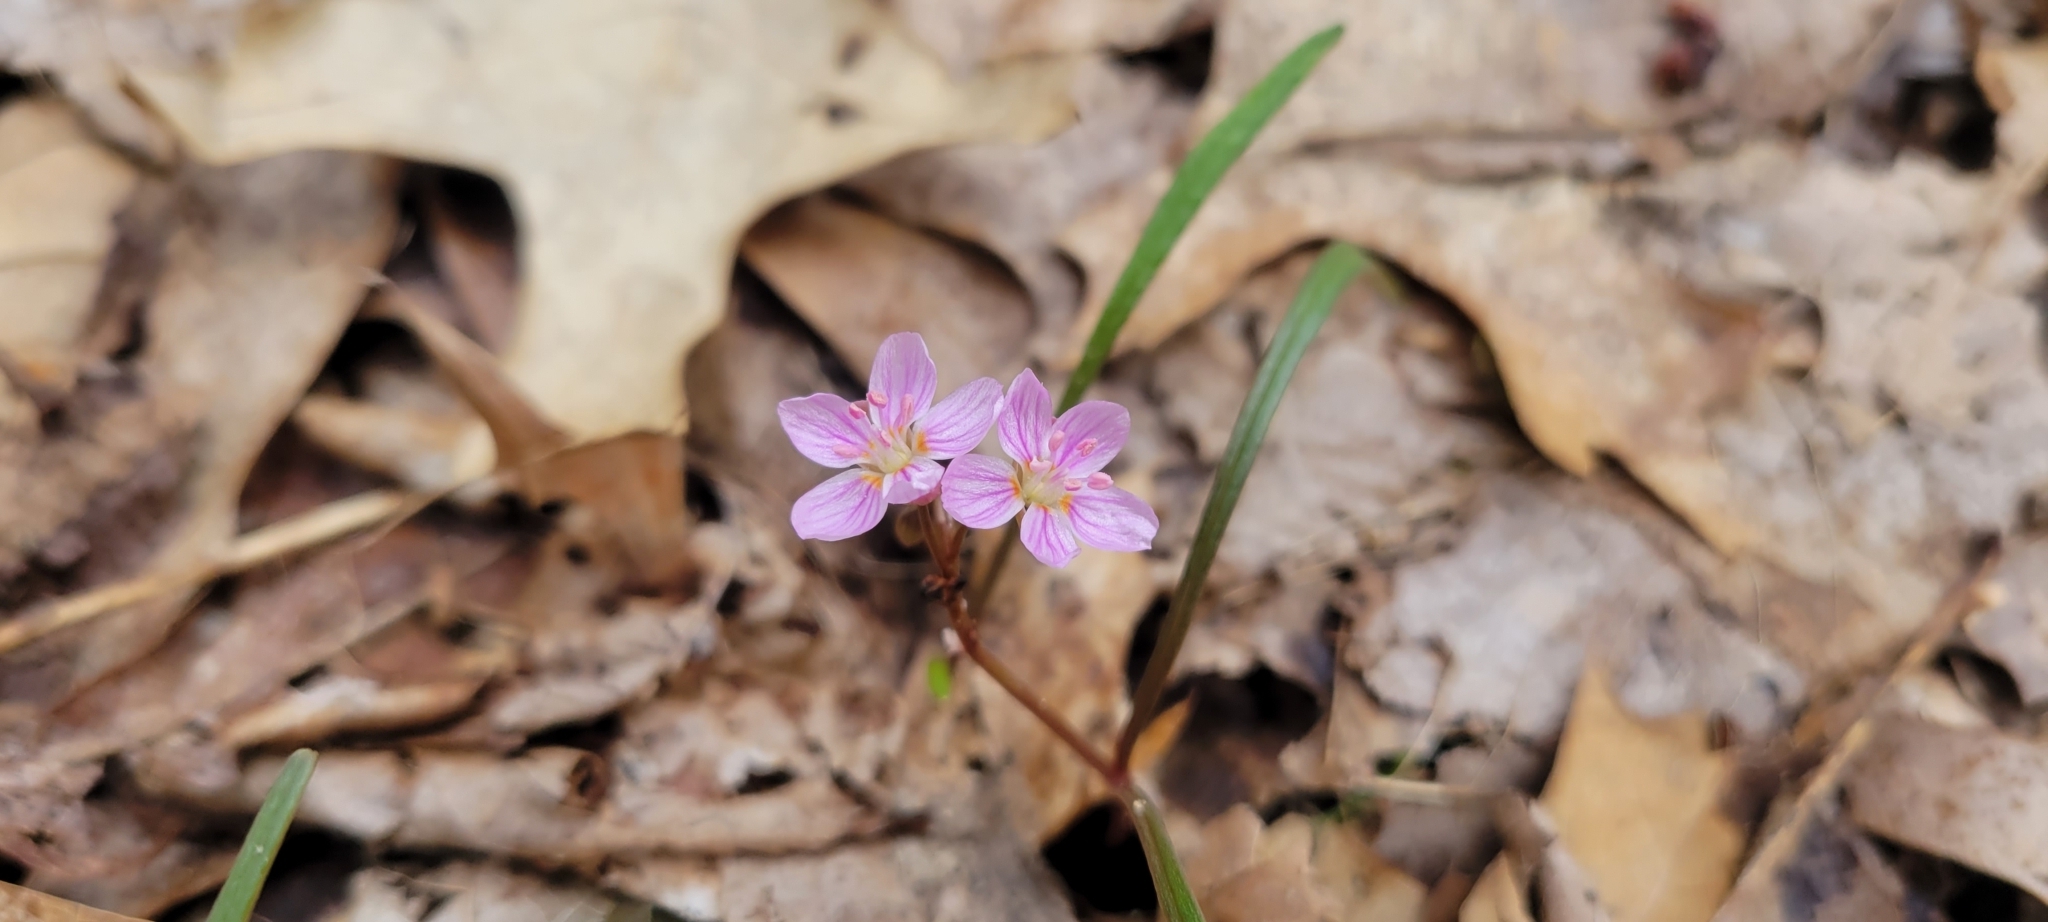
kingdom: Plantae
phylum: Tracheophyta
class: Magnoliopsida
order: Caryophyllales
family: Montiaceae
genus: Claytonia
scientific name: Claytonia virginica
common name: Virginia springbeauty
